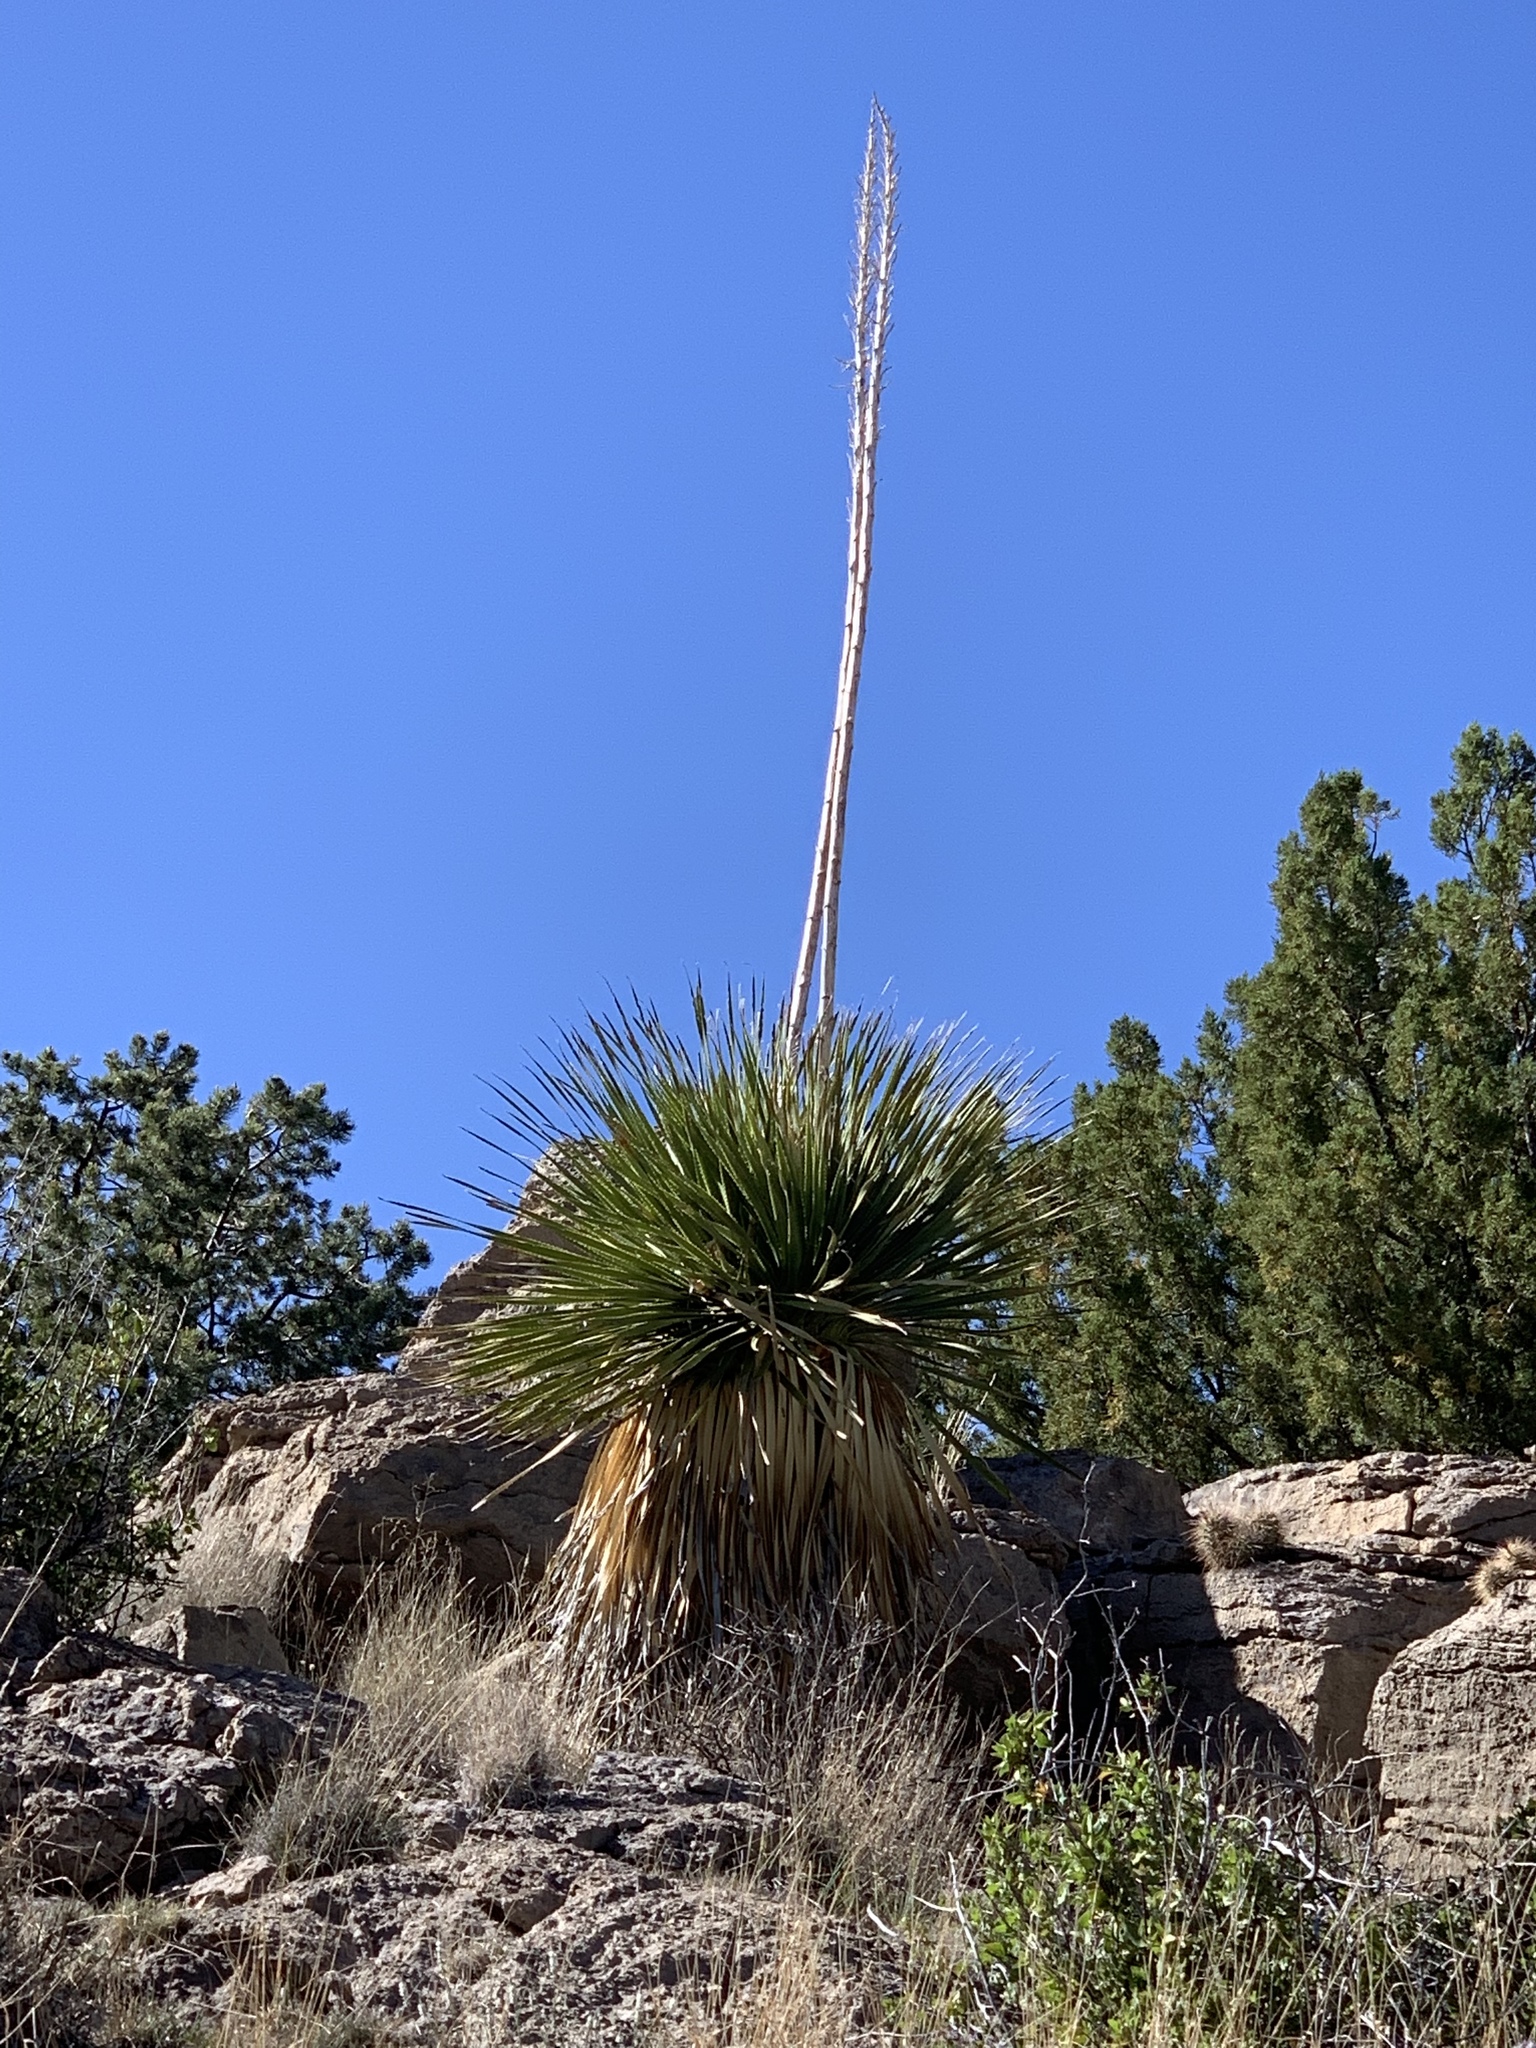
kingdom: Plantae
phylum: Tracheophyta
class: Liliopsida
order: Asparagales
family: Asparagaceae
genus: Dasylirion
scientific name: Dasylirion wheeleri
